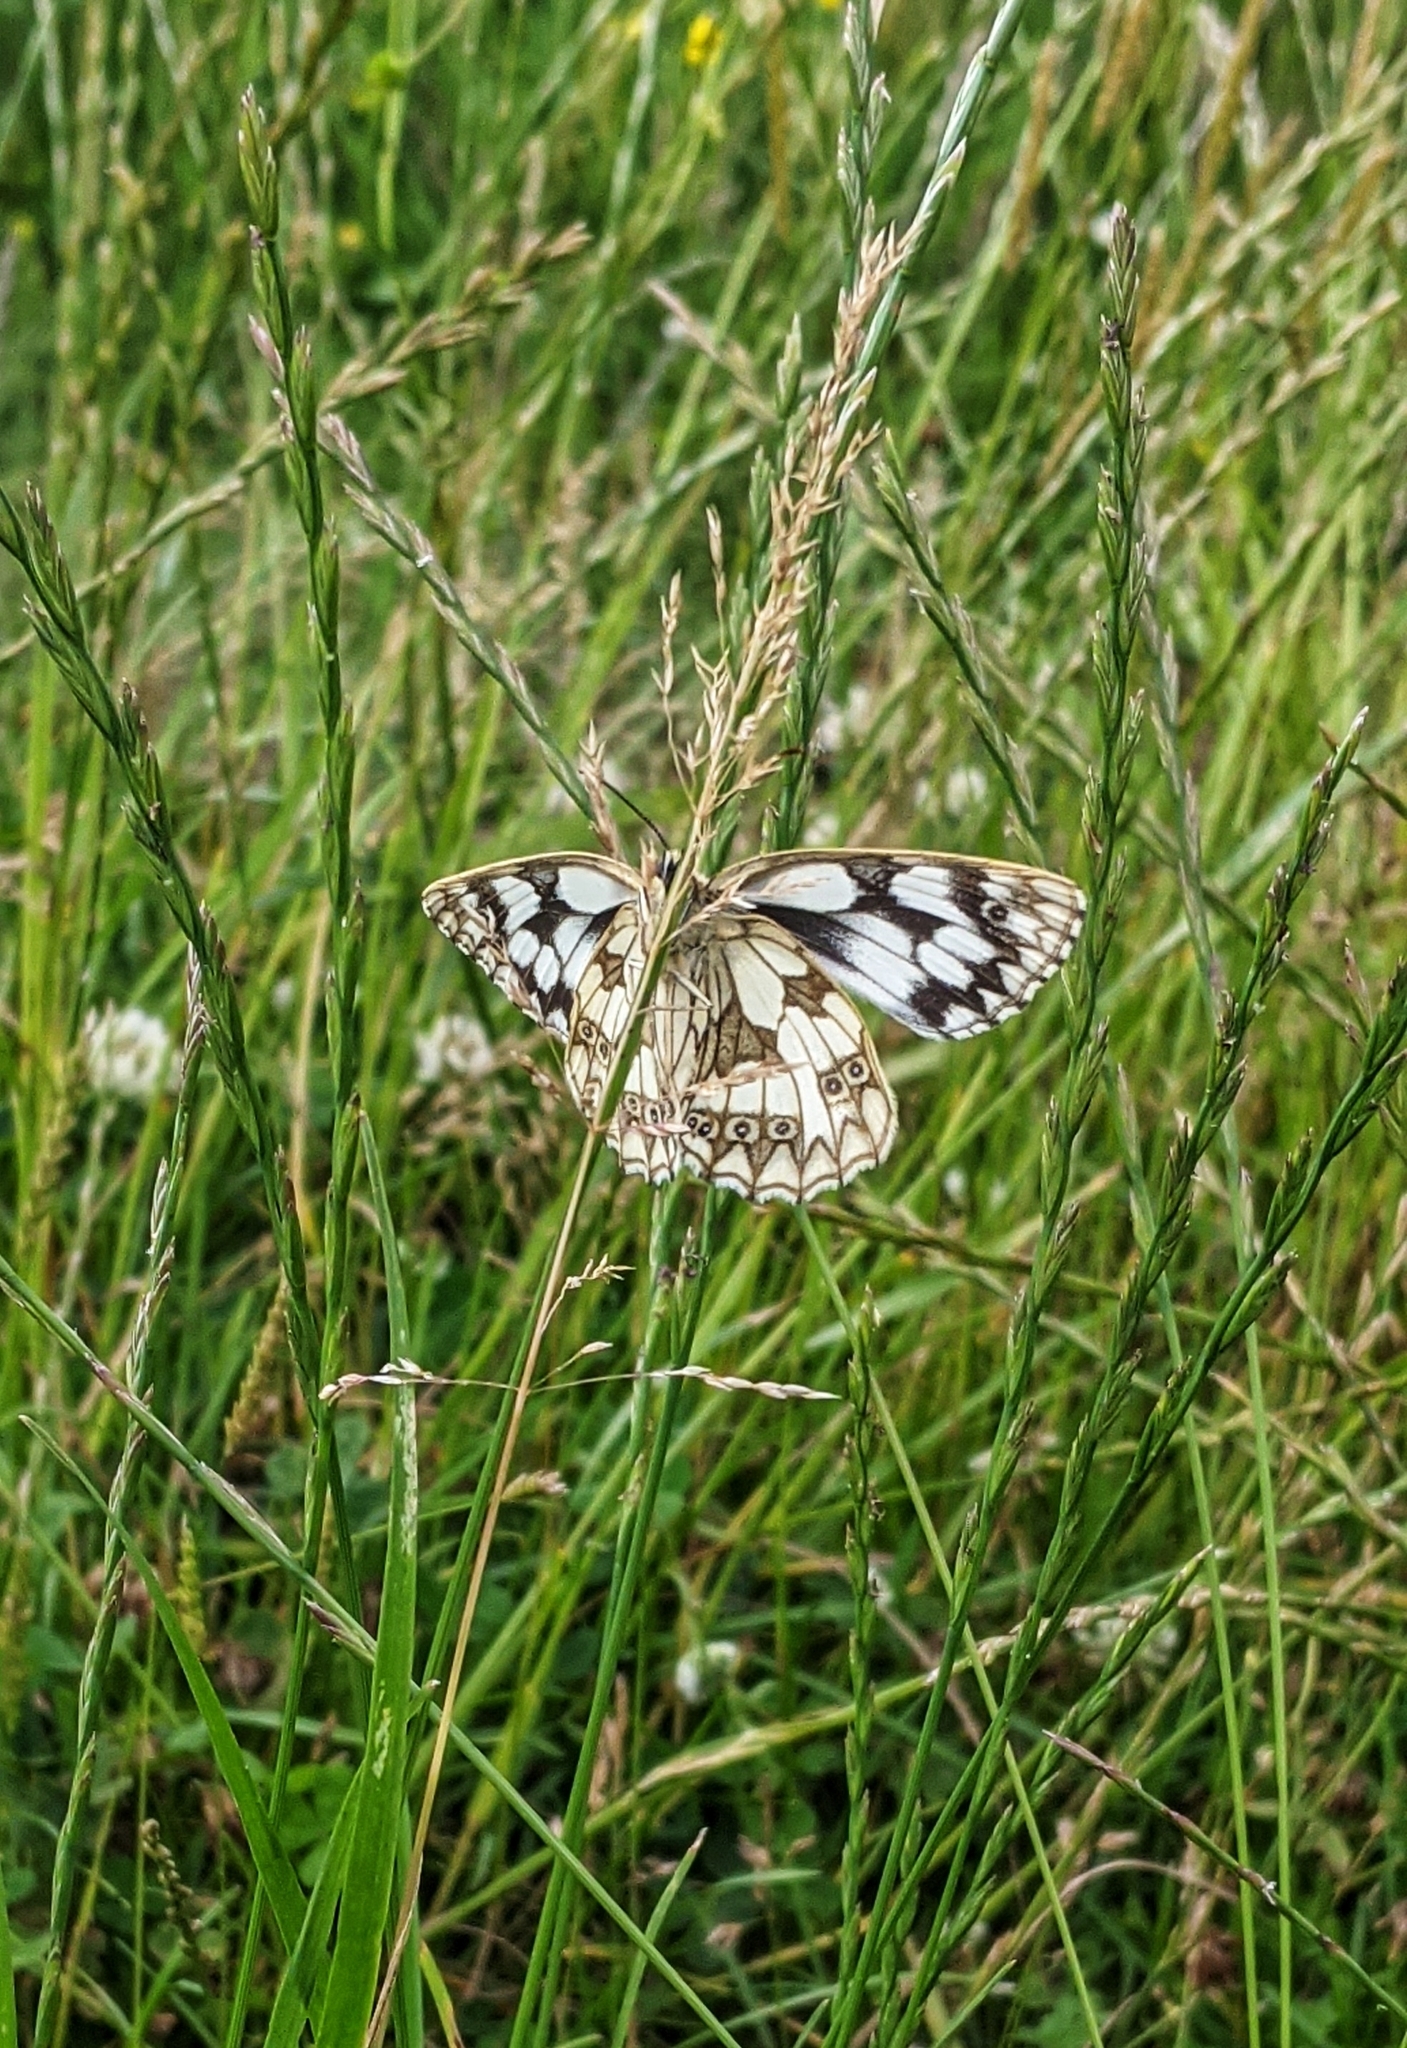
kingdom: Animalia
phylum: Arthropoda
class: Insecta
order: Lepidoptera
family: Nymphalidae
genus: Melanargia
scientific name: Melanargia galathea
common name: Marbled white
